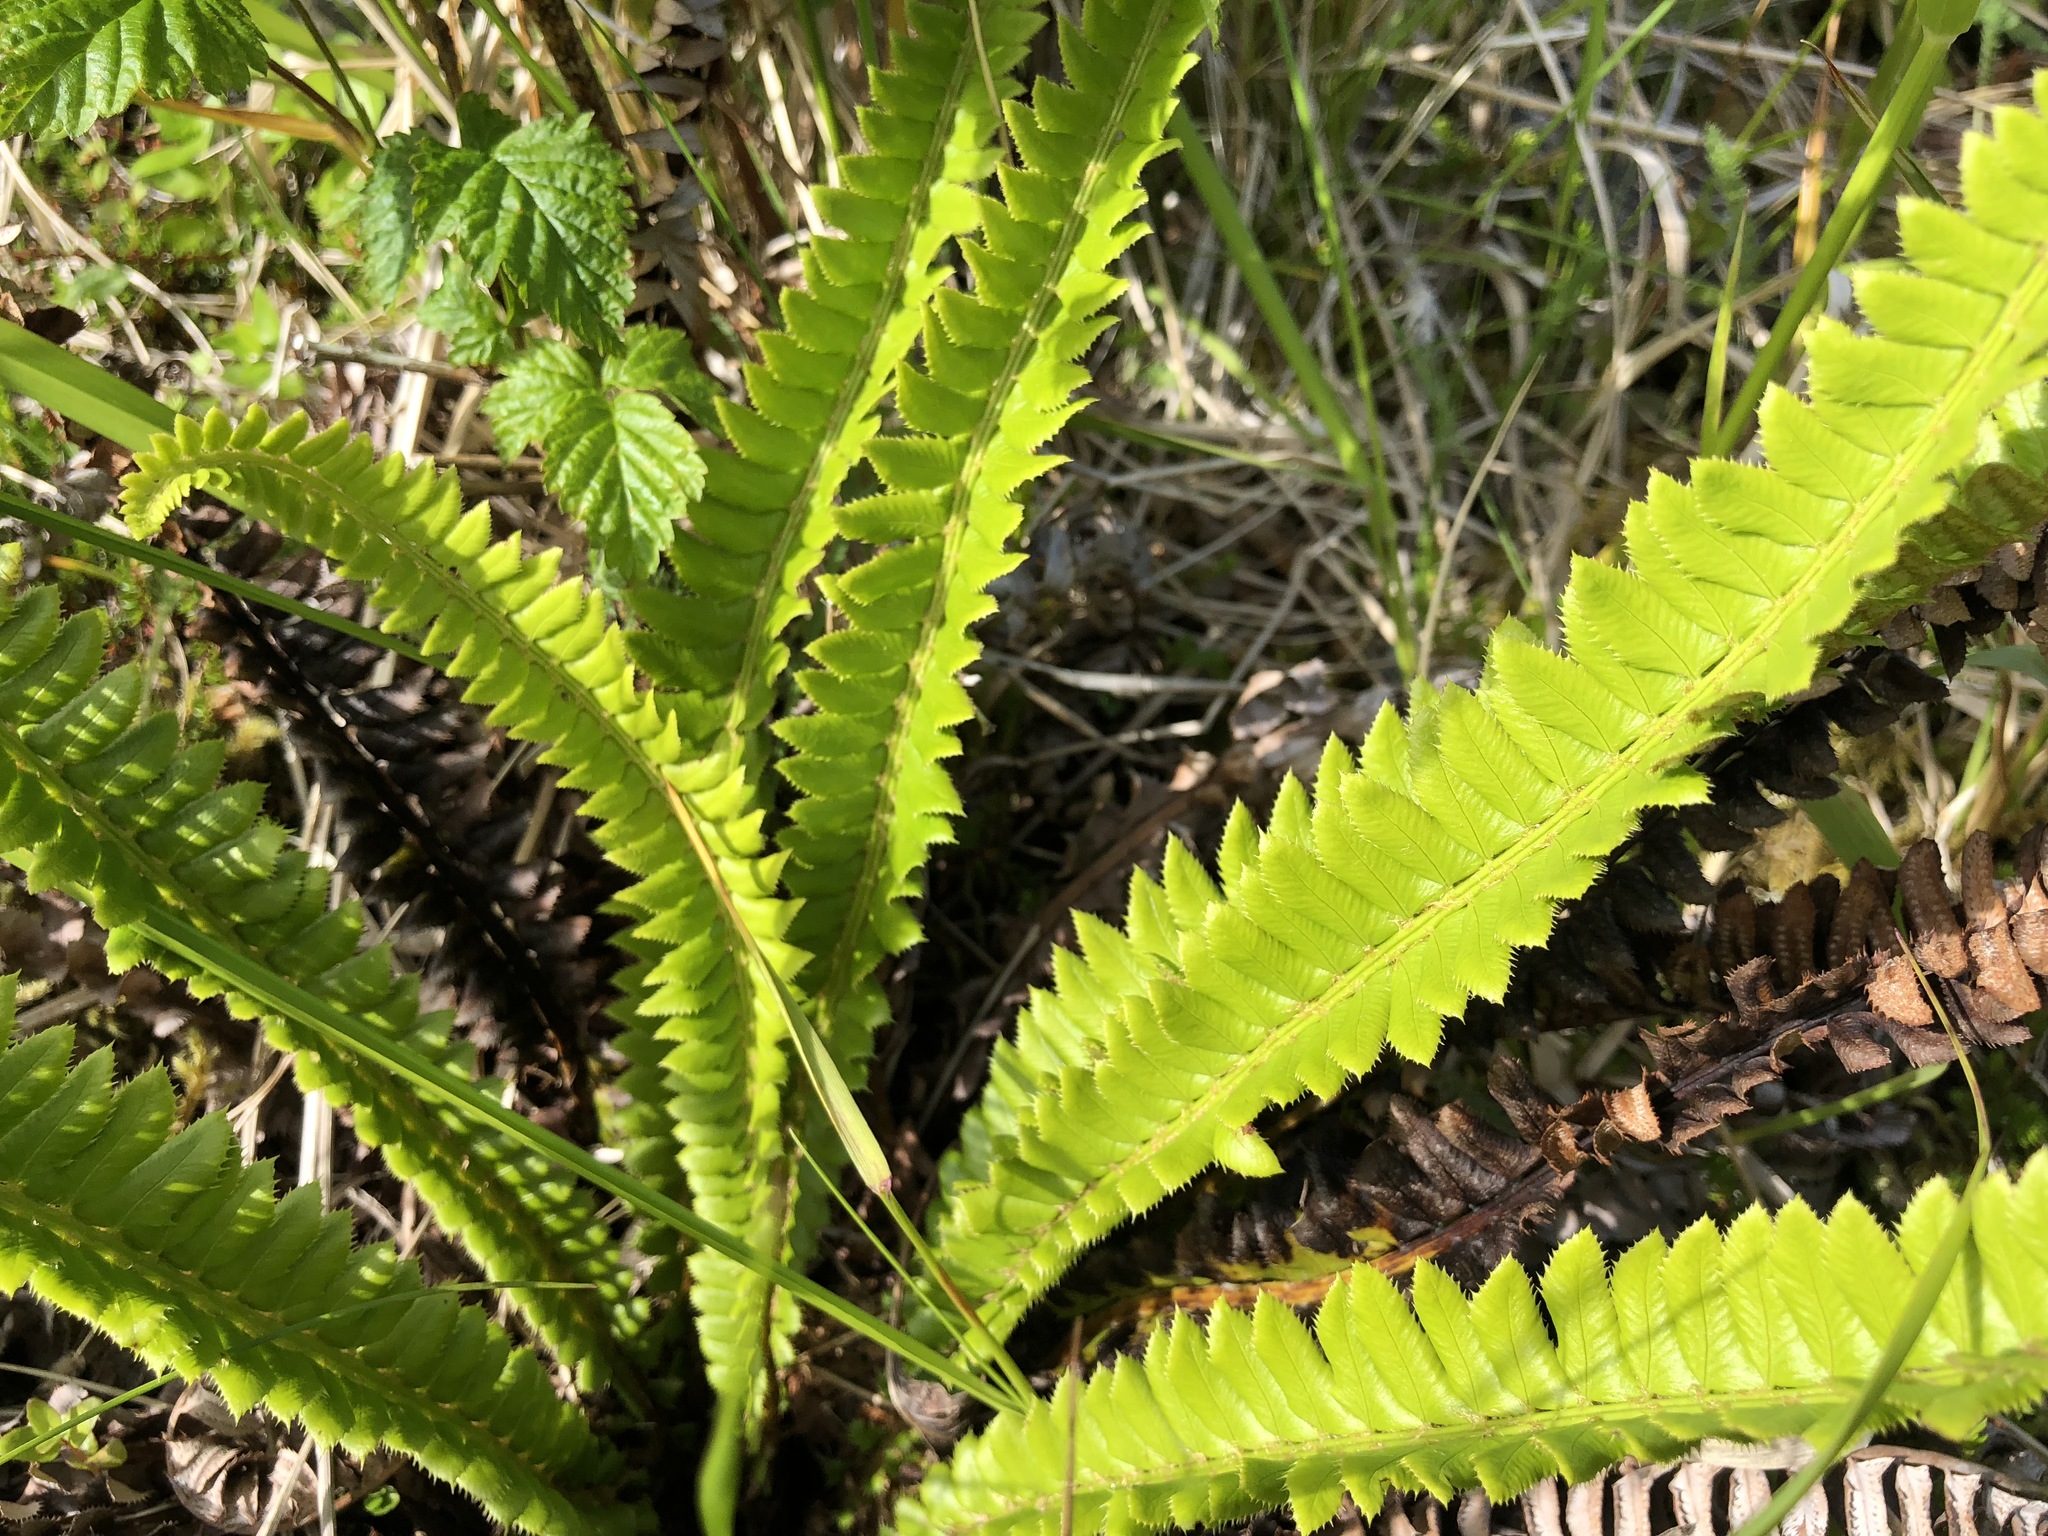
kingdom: Plantae
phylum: Tracheophyta
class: Polypodiopsida
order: Polypodiales
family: Dryopteridaceae
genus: Polystichum
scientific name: Polystichum lonchitis
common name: Holly fern
